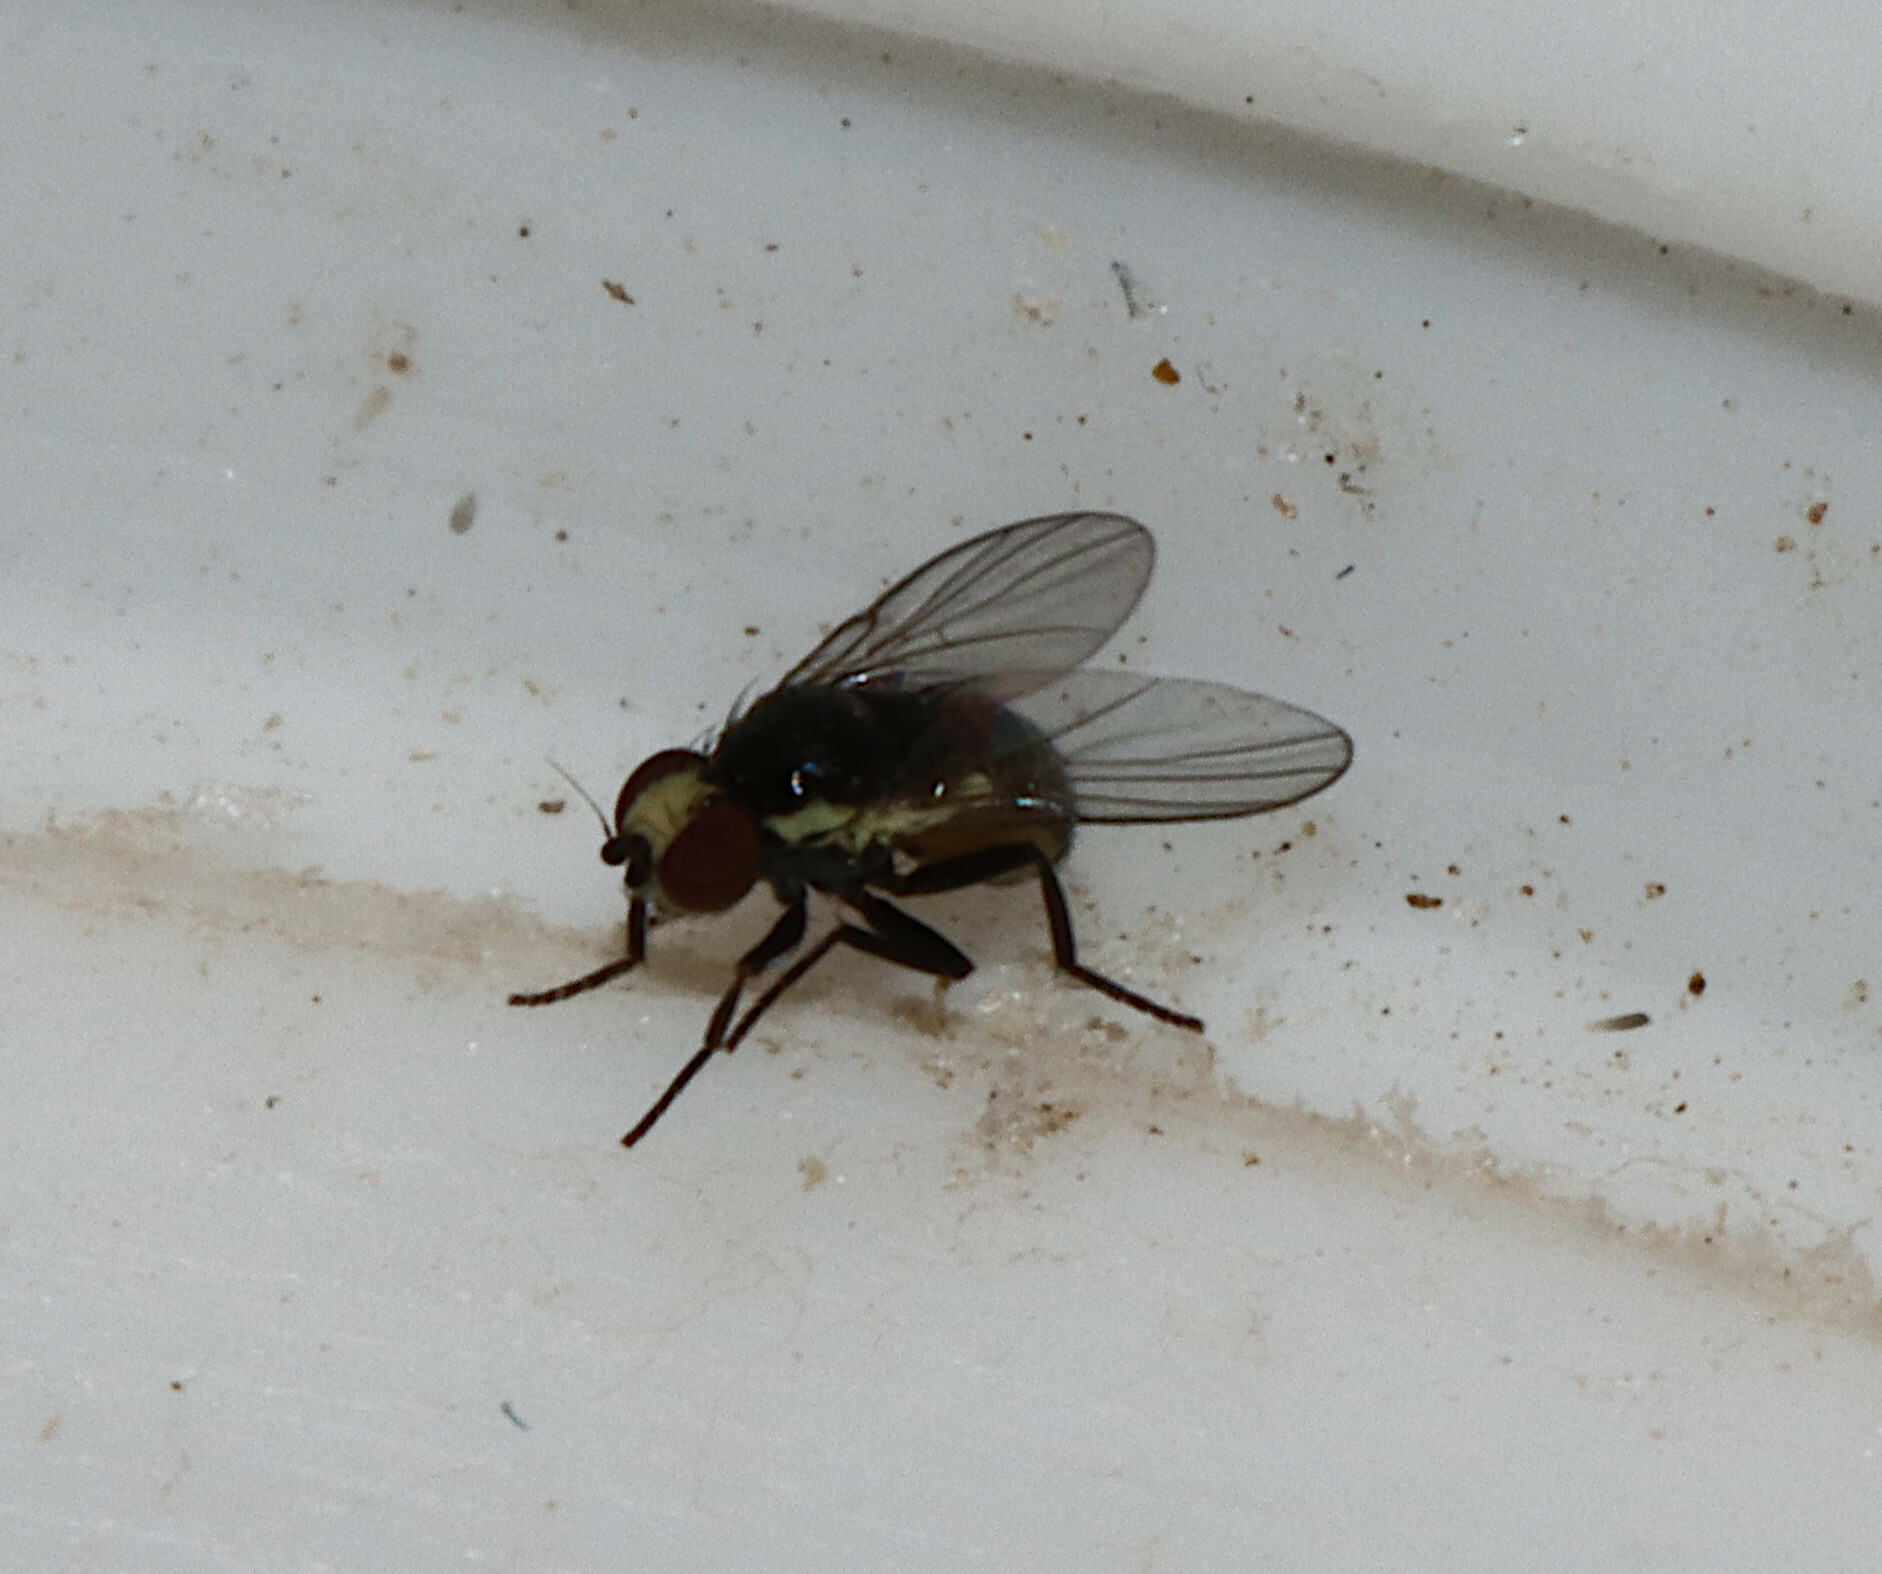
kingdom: Animalia
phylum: Arthropoda
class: Insecta
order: Diptera
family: Agromyzidae
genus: Calycomyza
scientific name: Calycomyza
